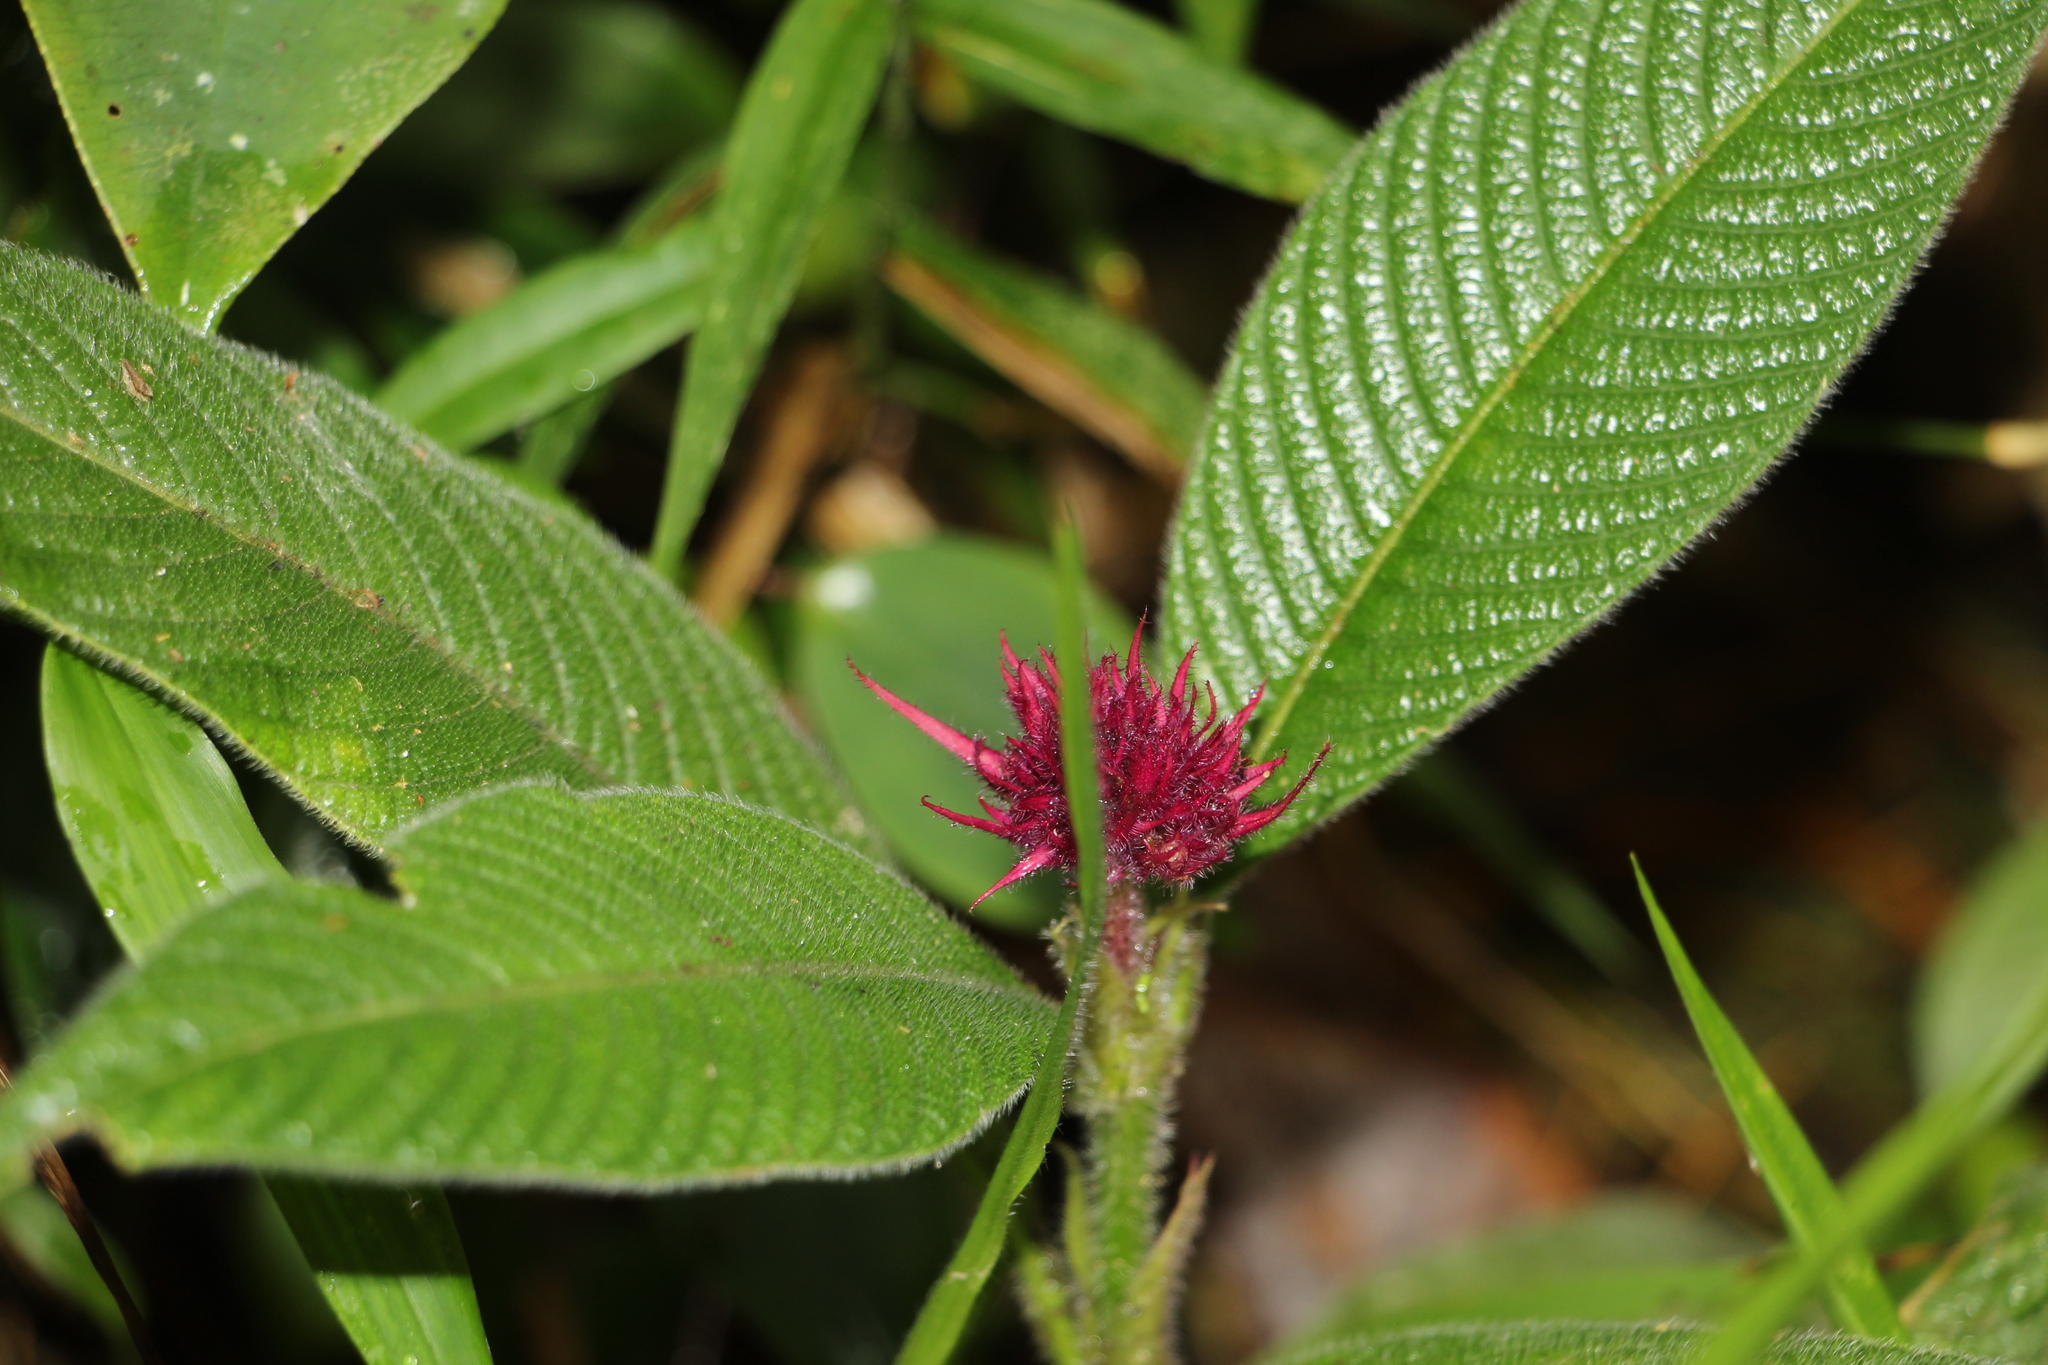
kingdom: Plantae
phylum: Tracheophyta
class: Magnoliopsida
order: Gentianales
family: Rubiaceae
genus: Palicourea
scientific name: Palicourea erythrocephala
